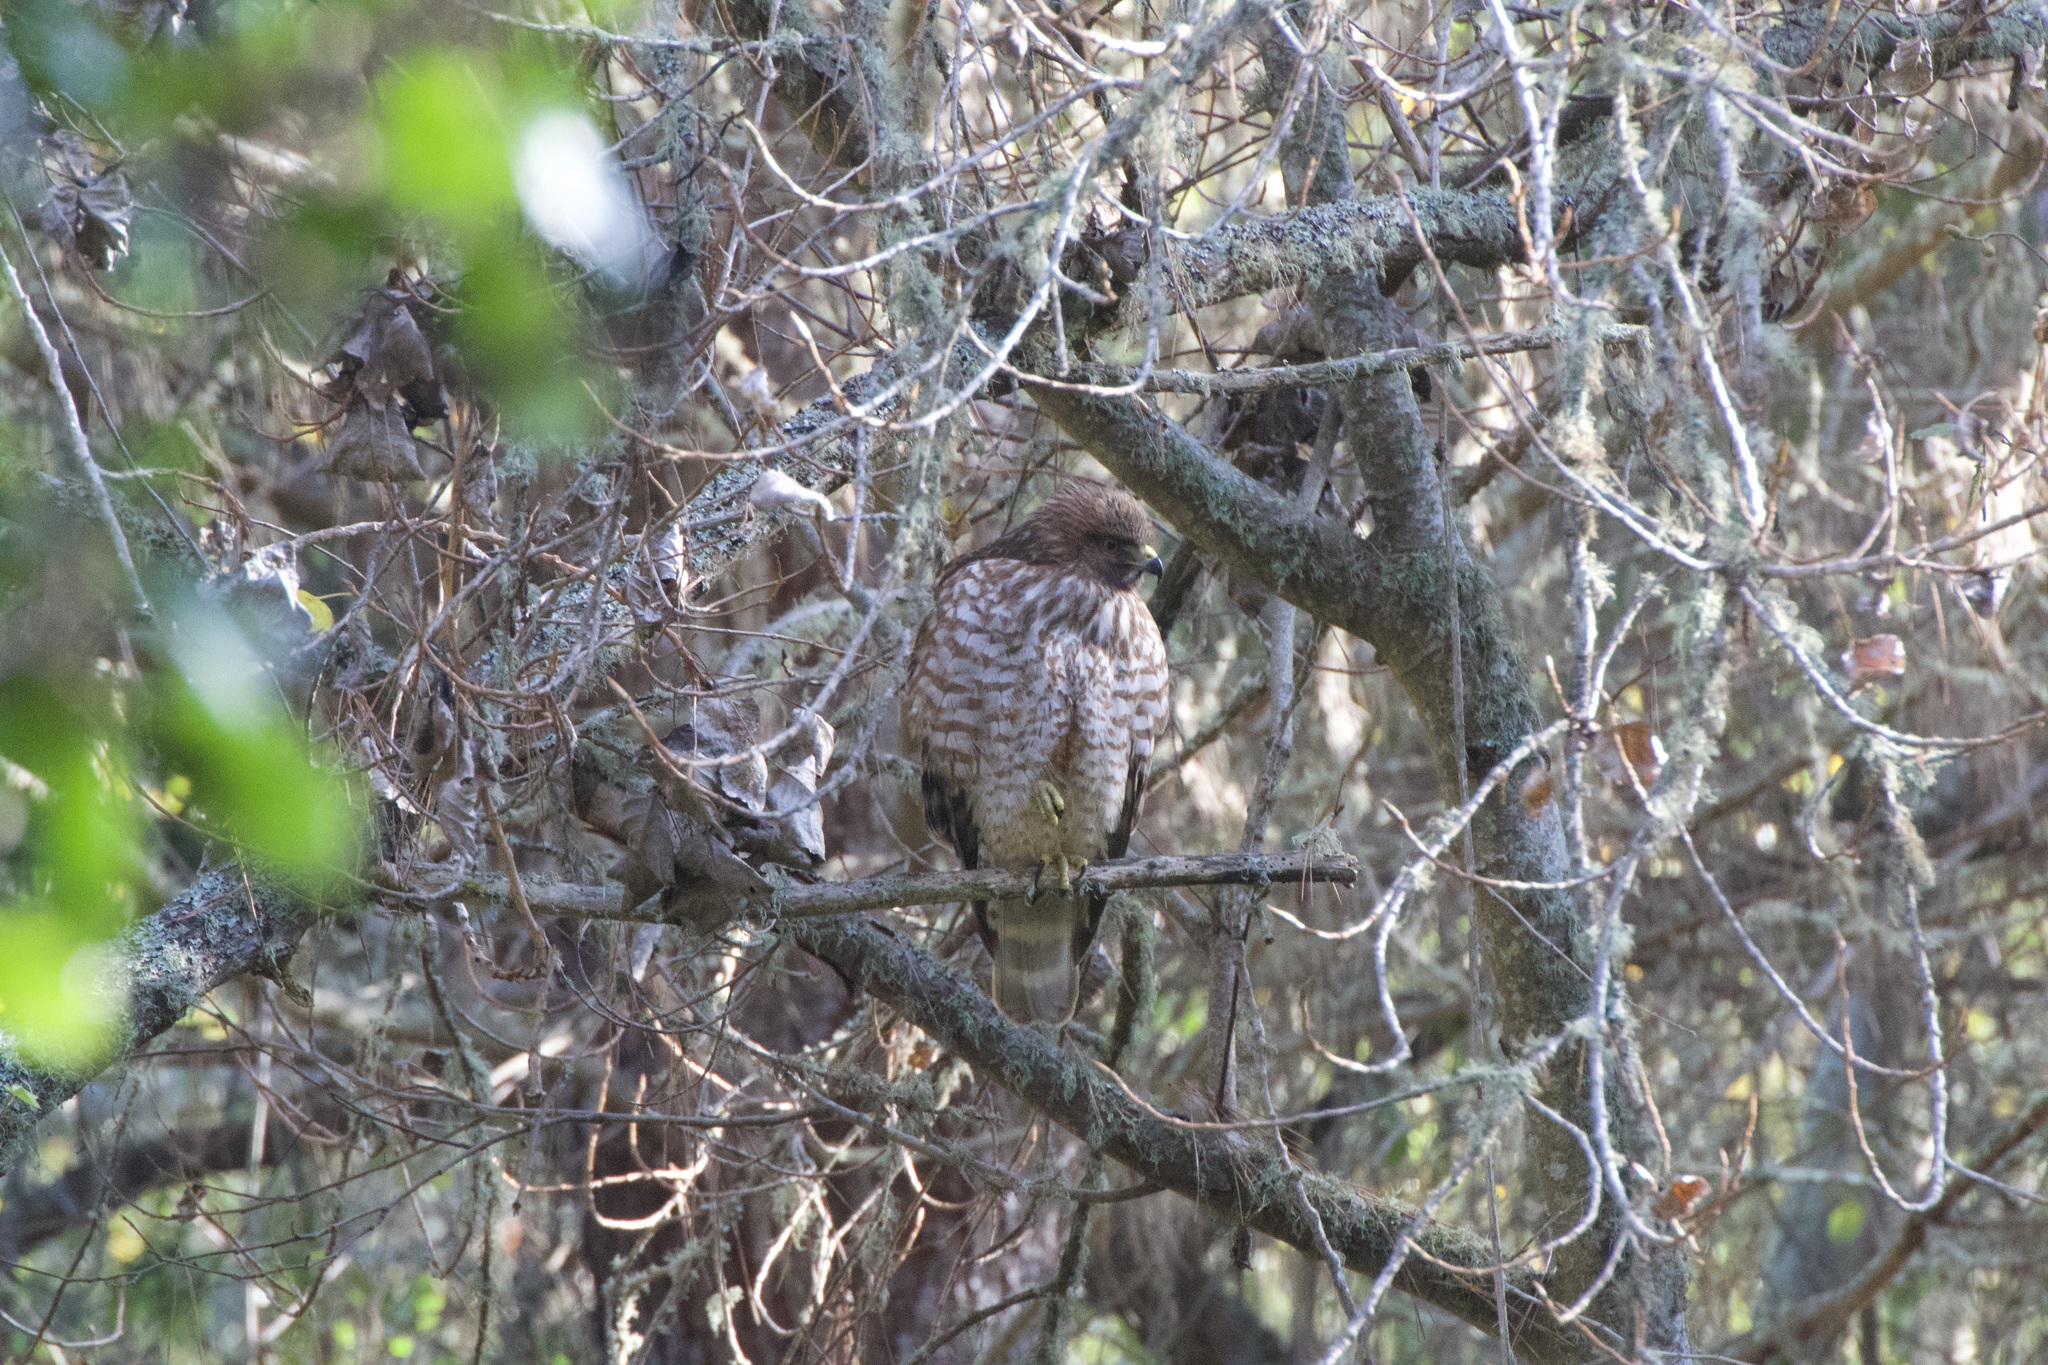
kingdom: Animalia
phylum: Chordata
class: Aves
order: Accipitriformes
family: Accipitridae
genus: Buteo
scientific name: Buteo lineatus
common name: Red-shouldered hawk
